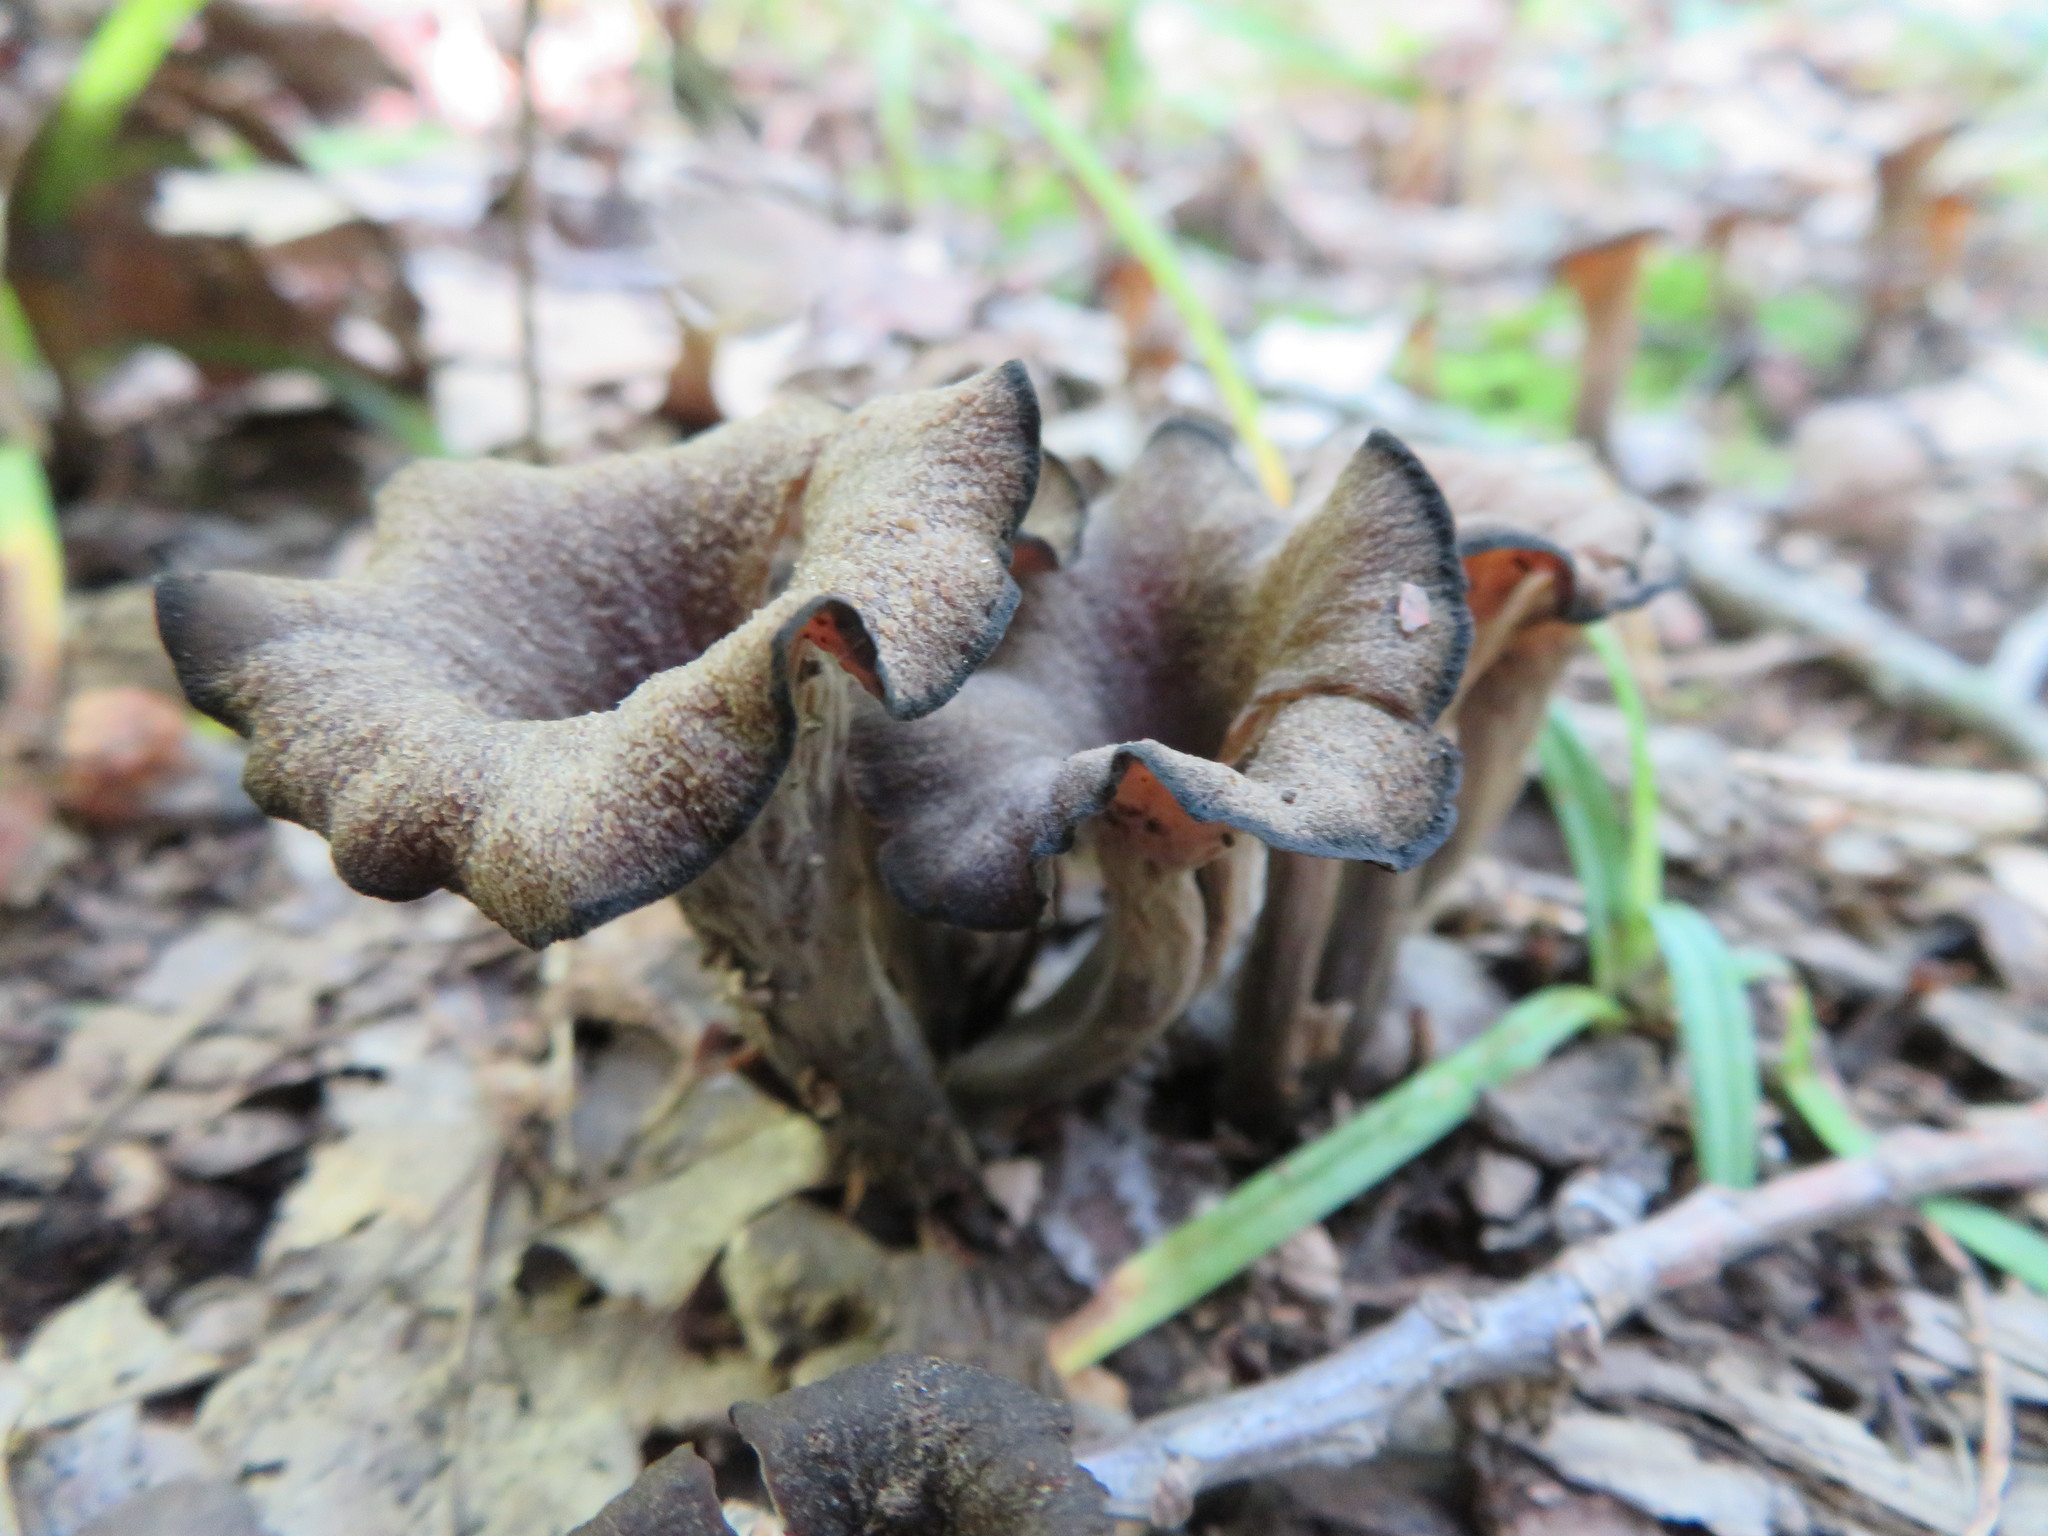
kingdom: Fungi
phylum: Basidiomycota
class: Agaricomycetes
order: Cantharellales
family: Hydnaceae
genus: Craterellus
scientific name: Craterellus cornucopioides
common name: Horn of plenty
